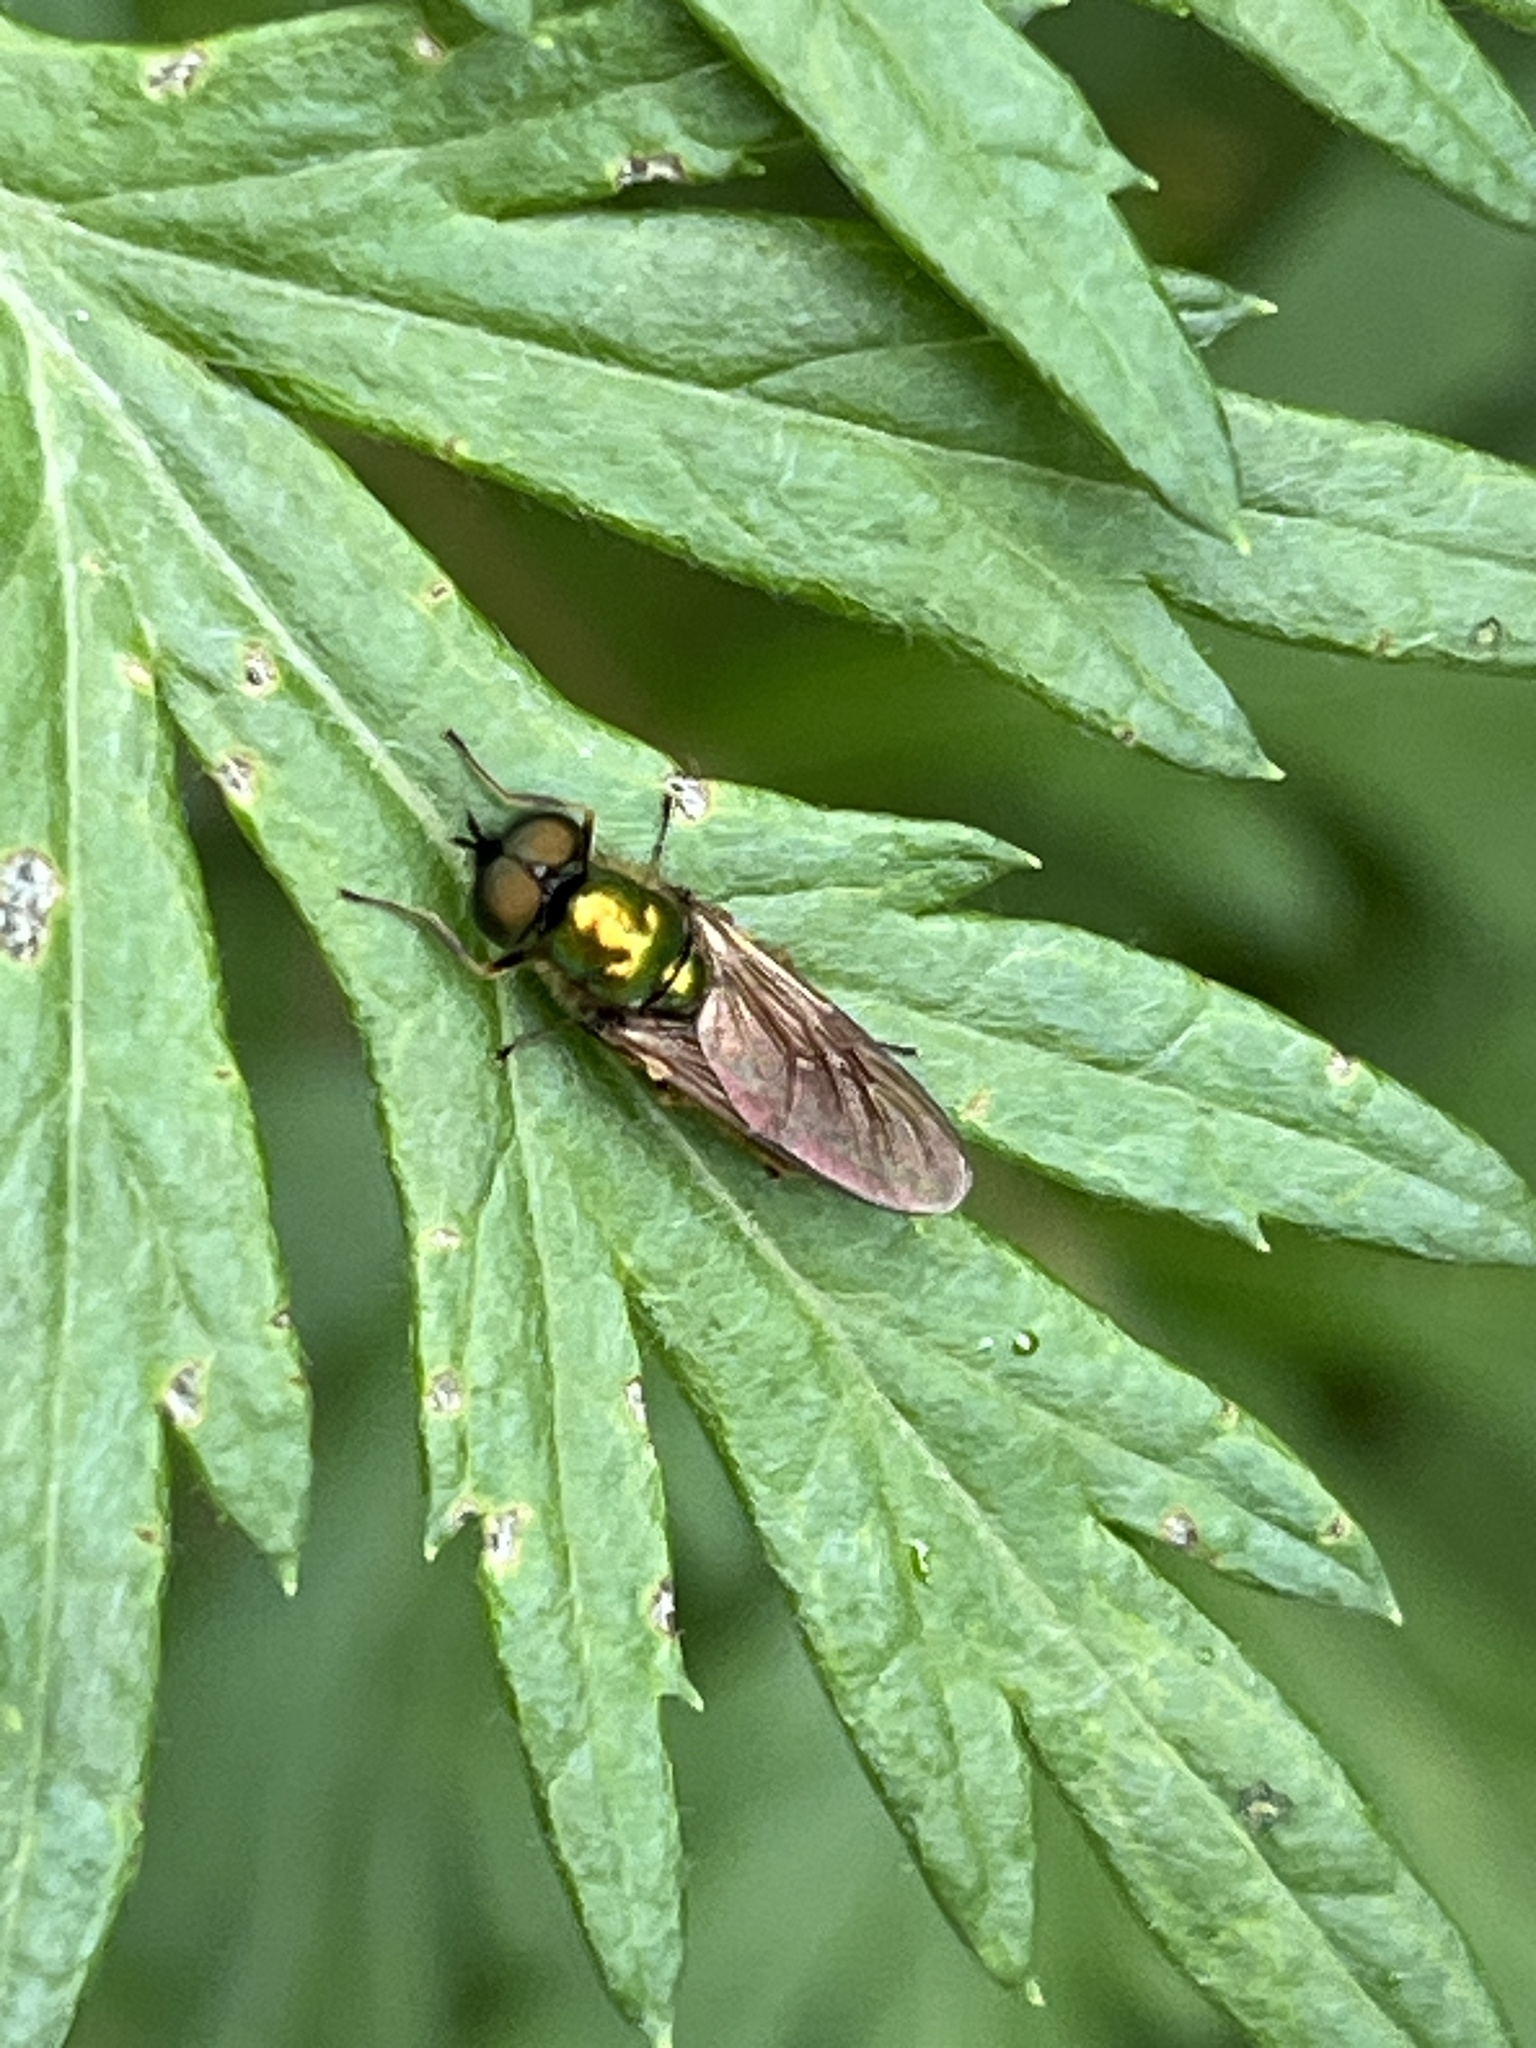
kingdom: Animalia
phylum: Arthropoda
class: Insecta
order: Diptera
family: Stratiomyidae
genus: Chloromyia
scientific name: Chloromyia formosa
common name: Soldier fly
